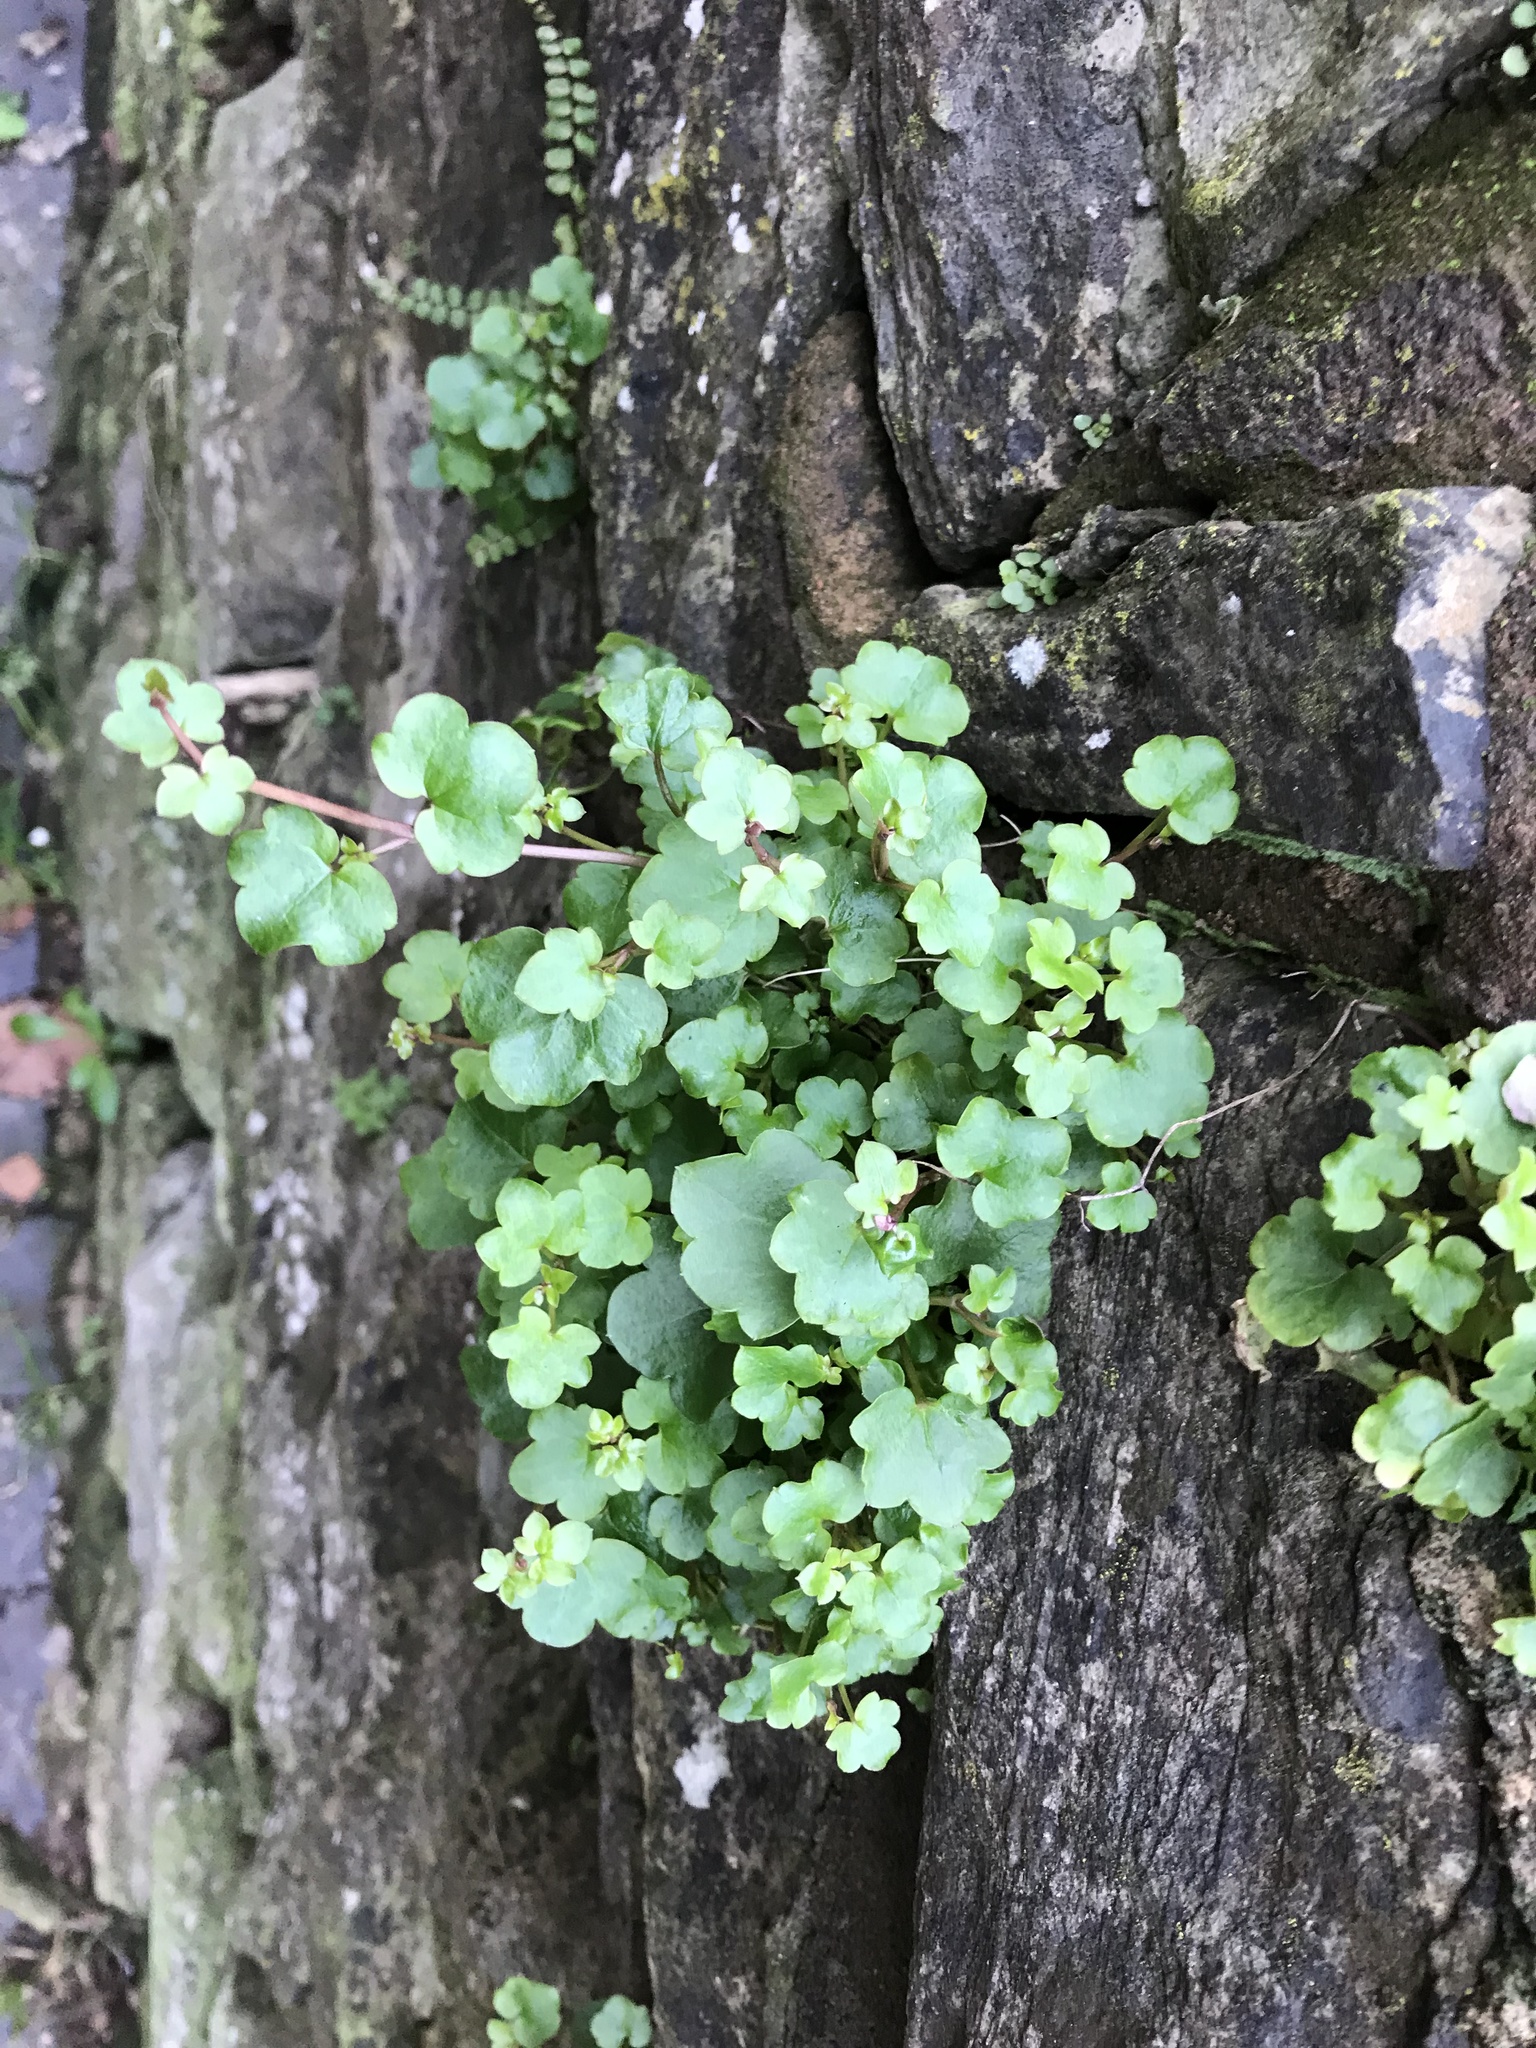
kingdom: Plantae
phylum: Tracheophyta
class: Magnoliopsida
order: Lamiales
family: Plantaginaceae
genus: Cymbalaria
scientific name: Cymbalaria muralis
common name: Ivy-leaved toadflax
